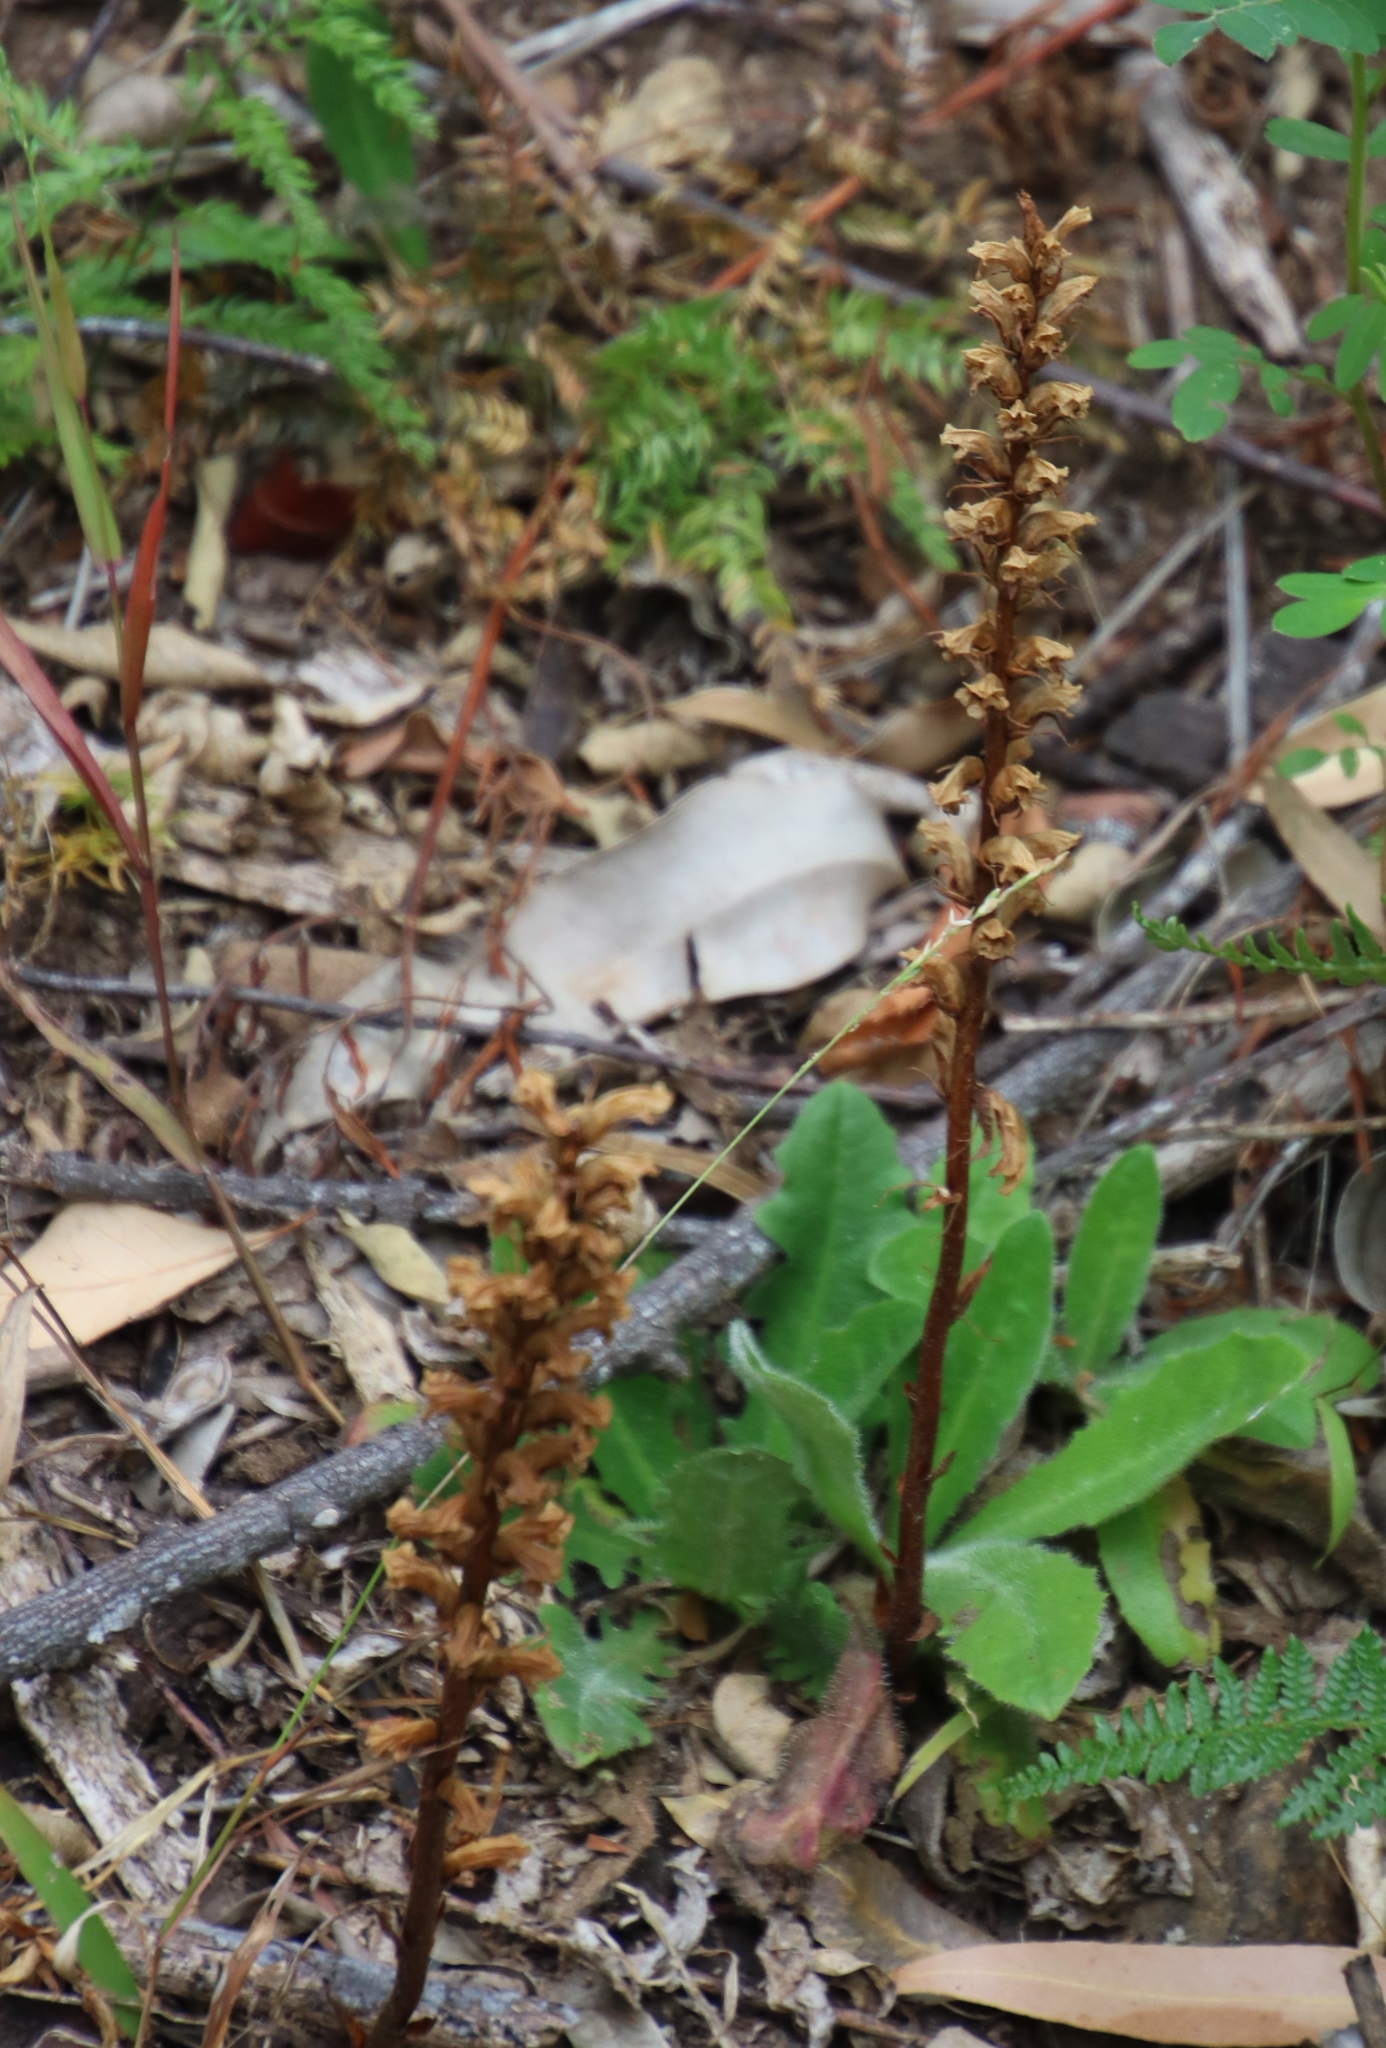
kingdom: Plantae
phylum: Tracheophyta
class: Magnoliopsida
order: Lamiales
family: Orobanchaceae
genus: Orobanche
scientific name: Orobanche minor
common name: Common broomrape
